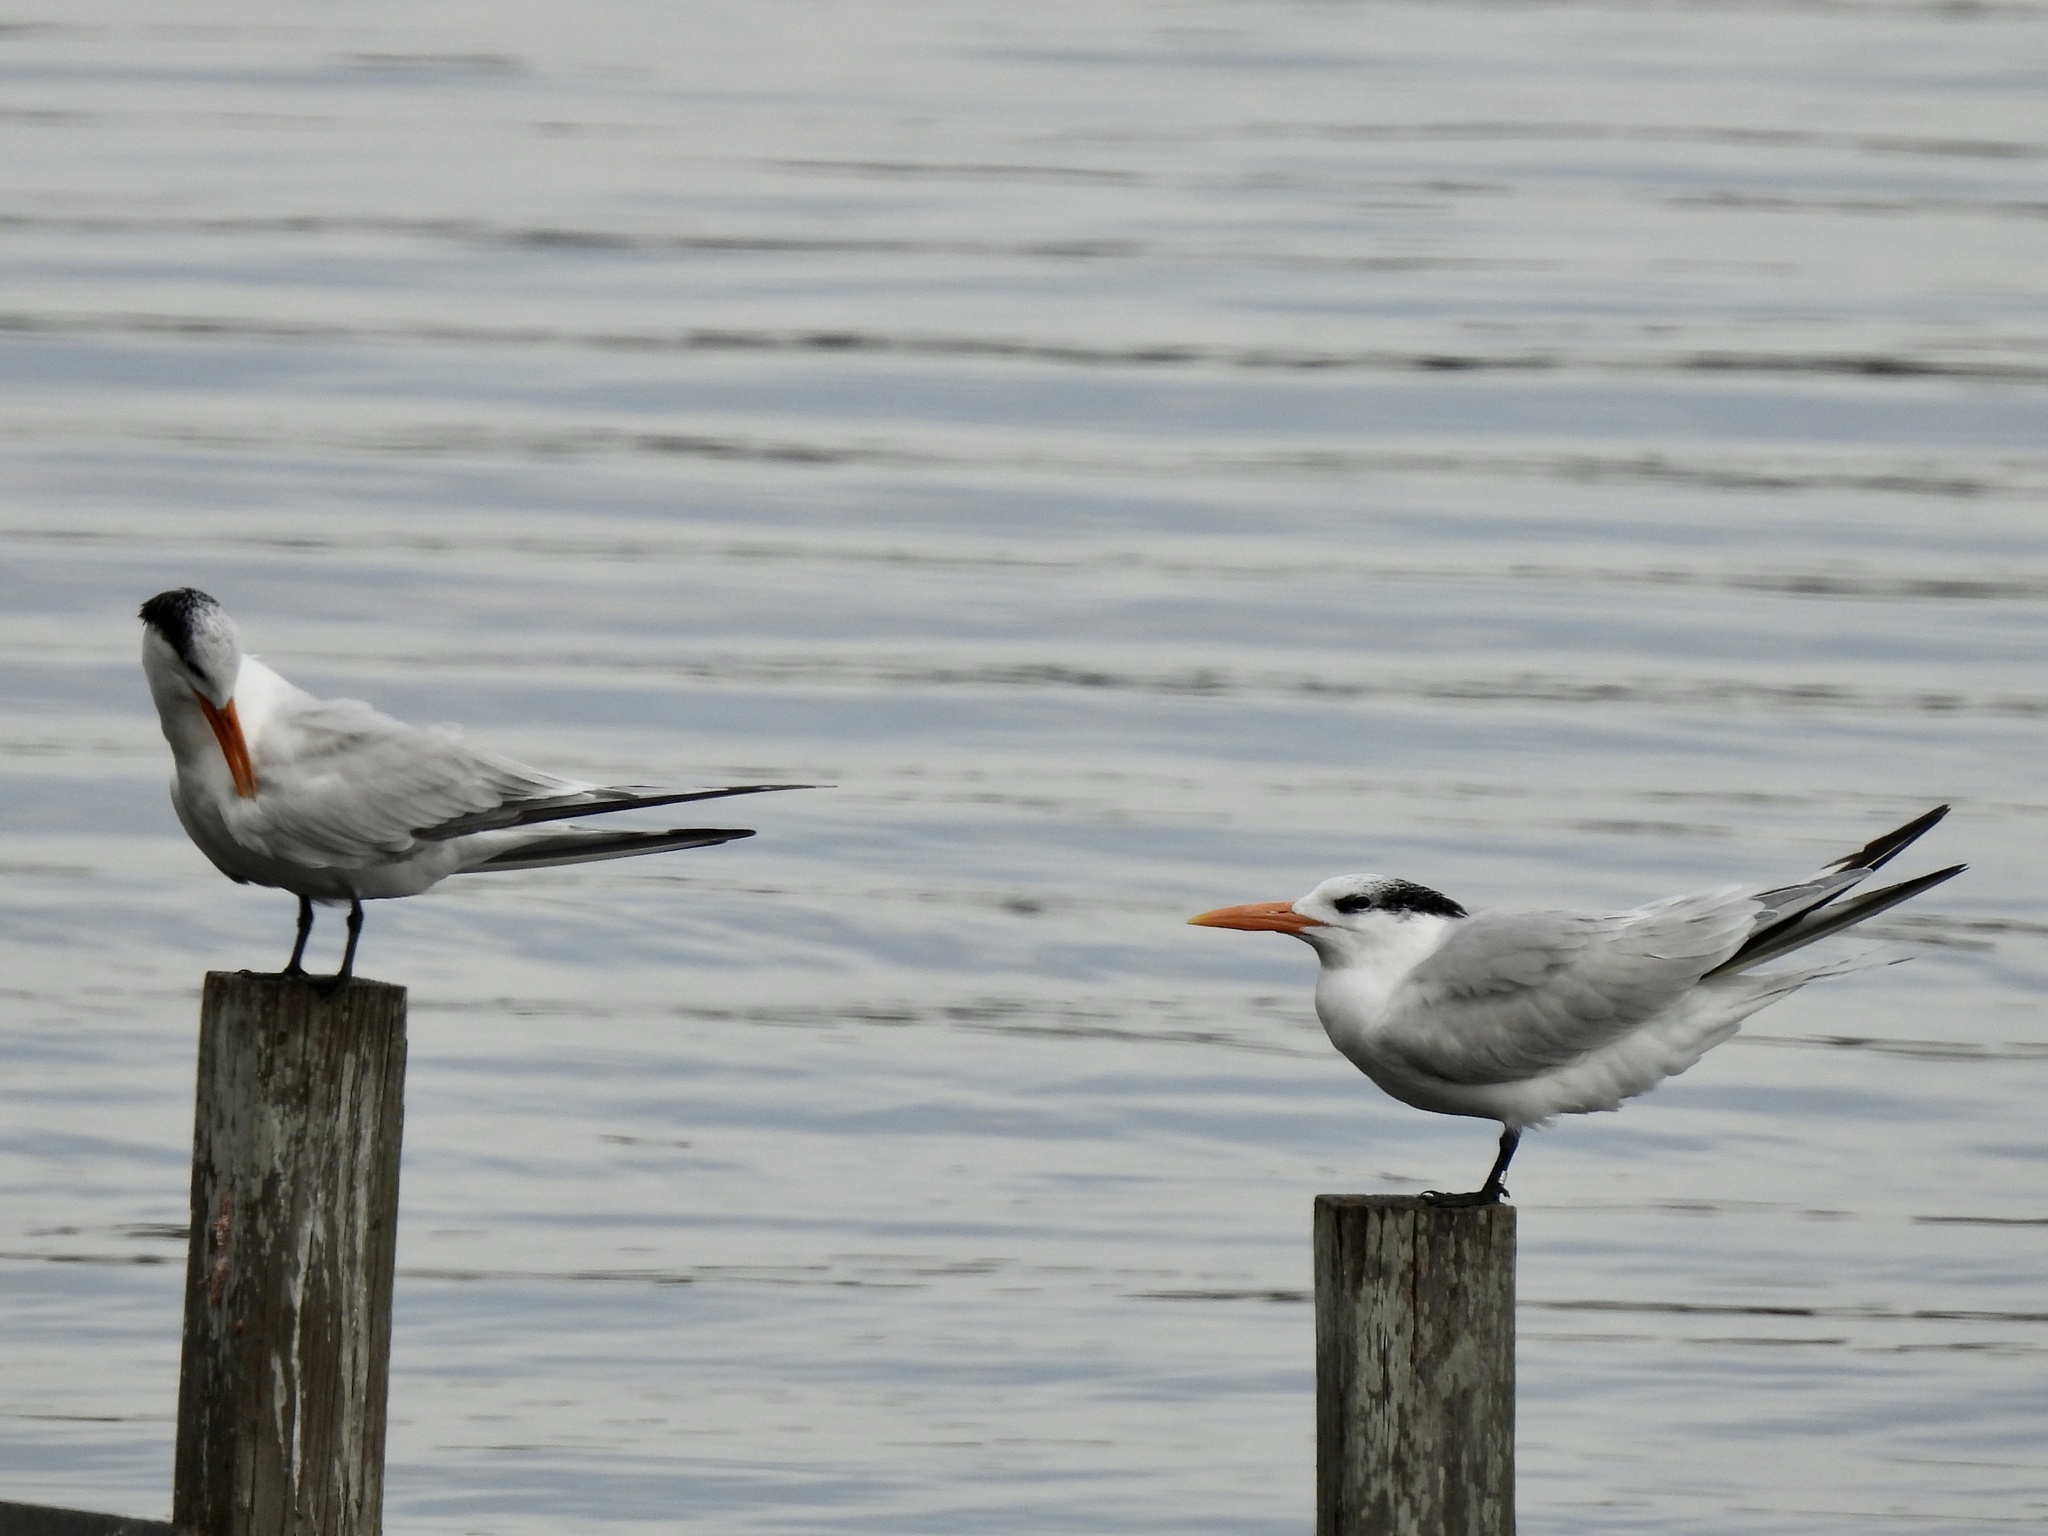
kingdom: Animalia
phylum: Chordata
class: Aves
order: Charadriiformes
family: Laridae
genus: Thalasseus
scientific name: Thalasseus maximus
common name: Royal tern
